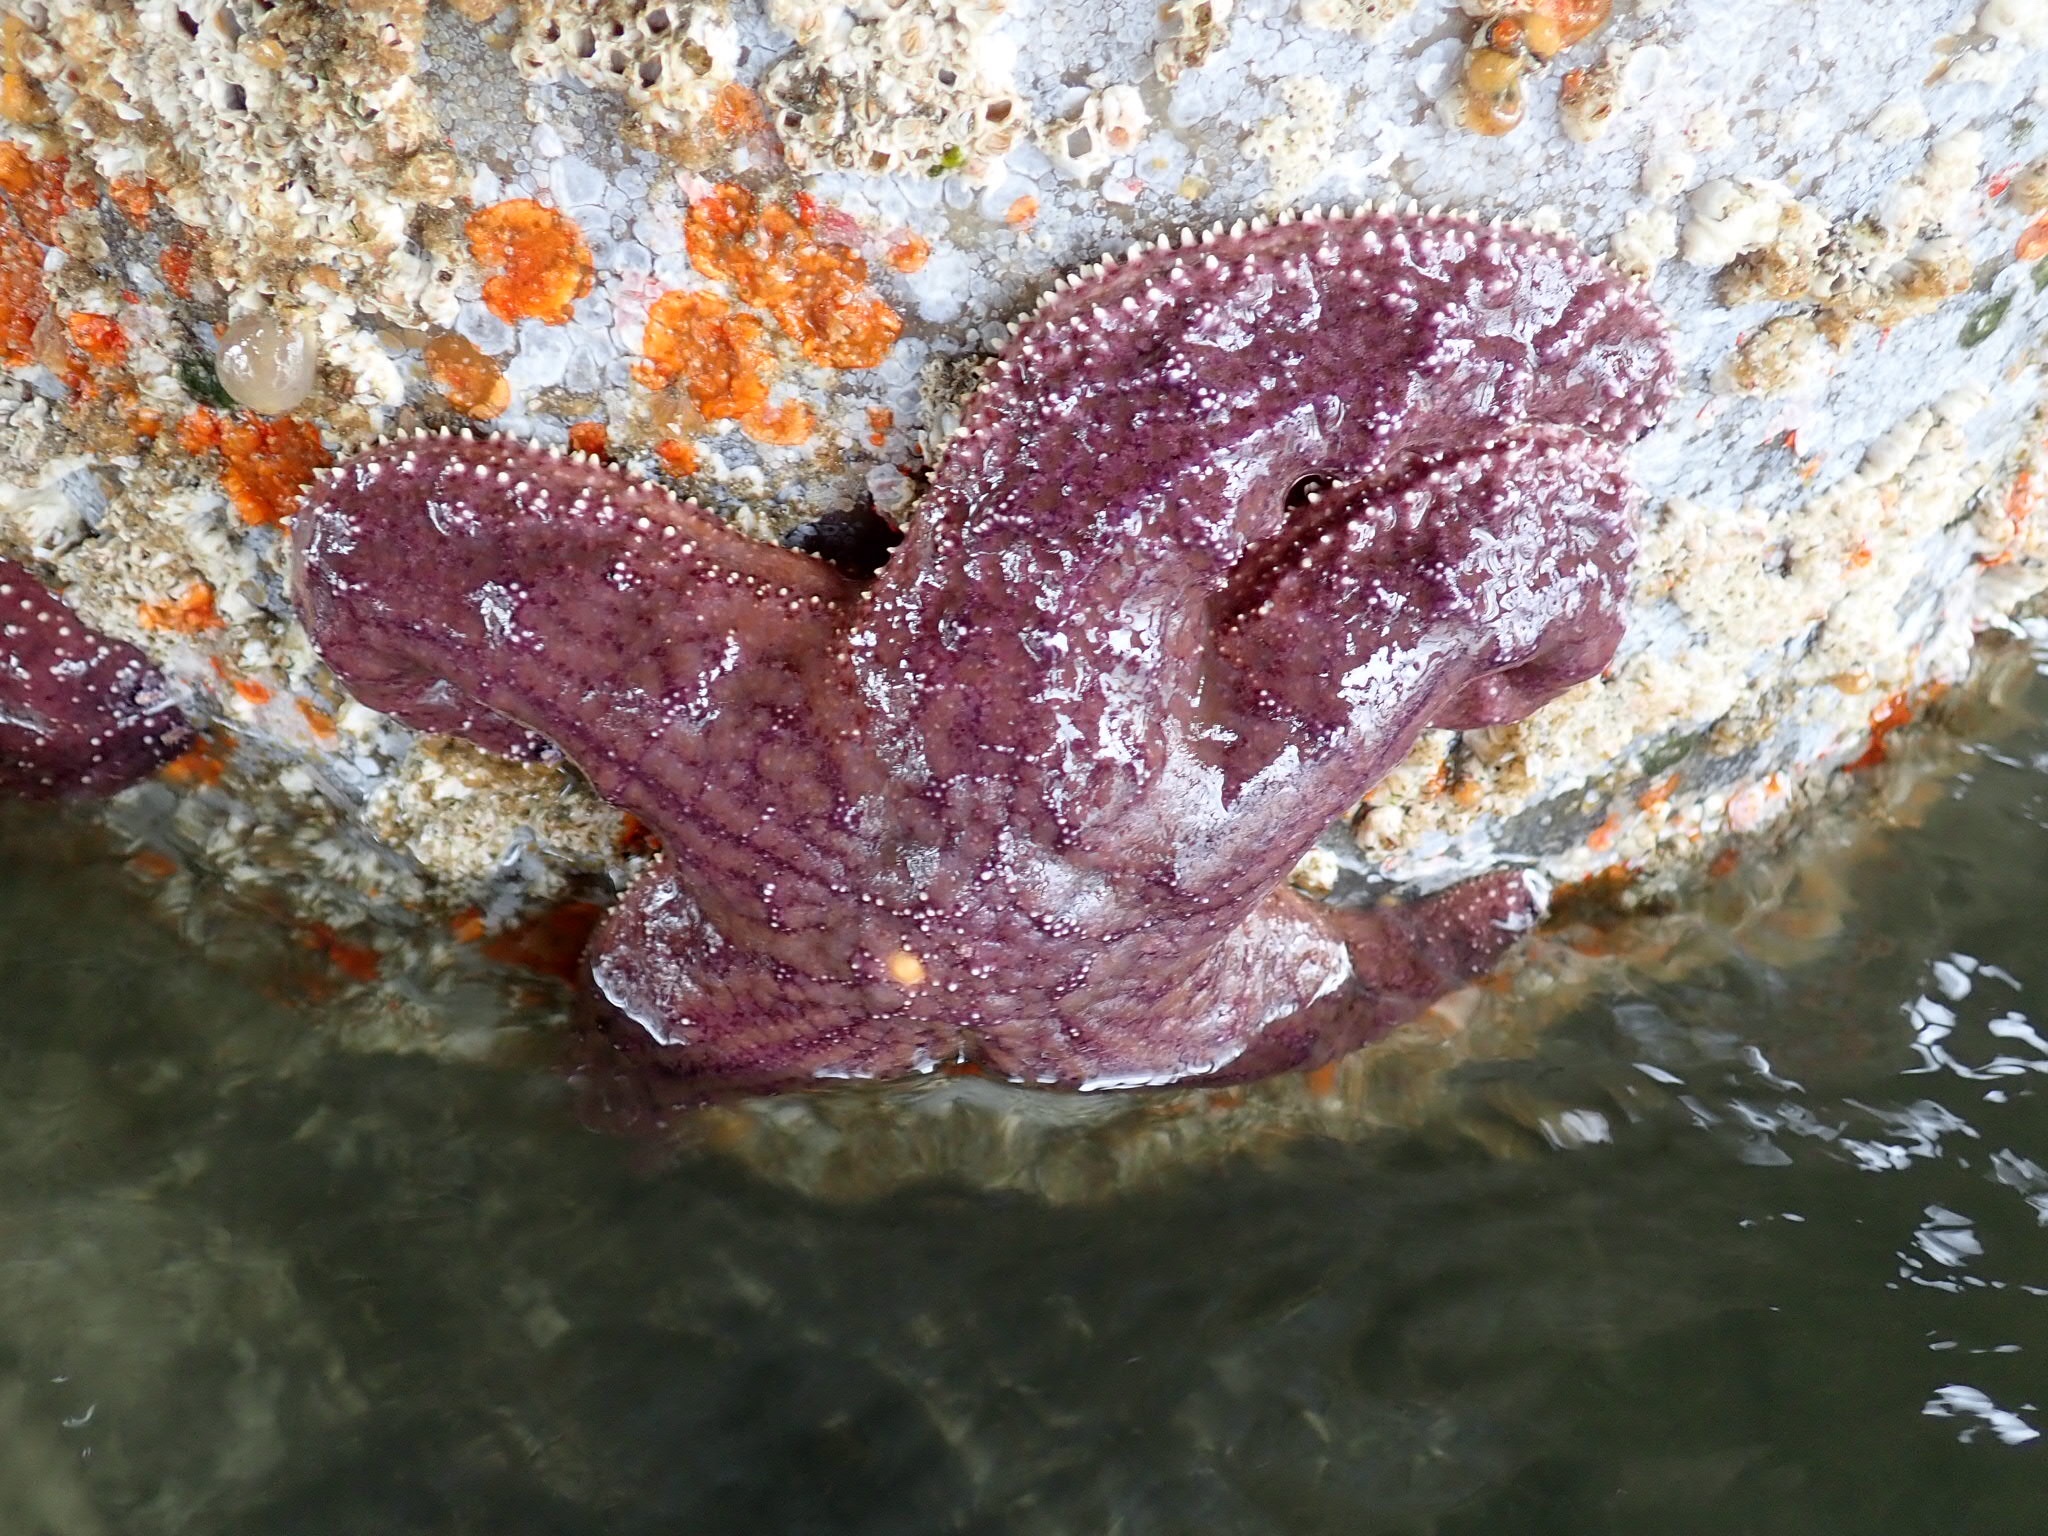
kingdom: Animalia
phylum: Echinodermata
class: Asteroidea
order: Forcipulatida
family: Asteriidae
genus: Pisaster
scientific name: Pisaster ochraceus
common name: Ochre stars
